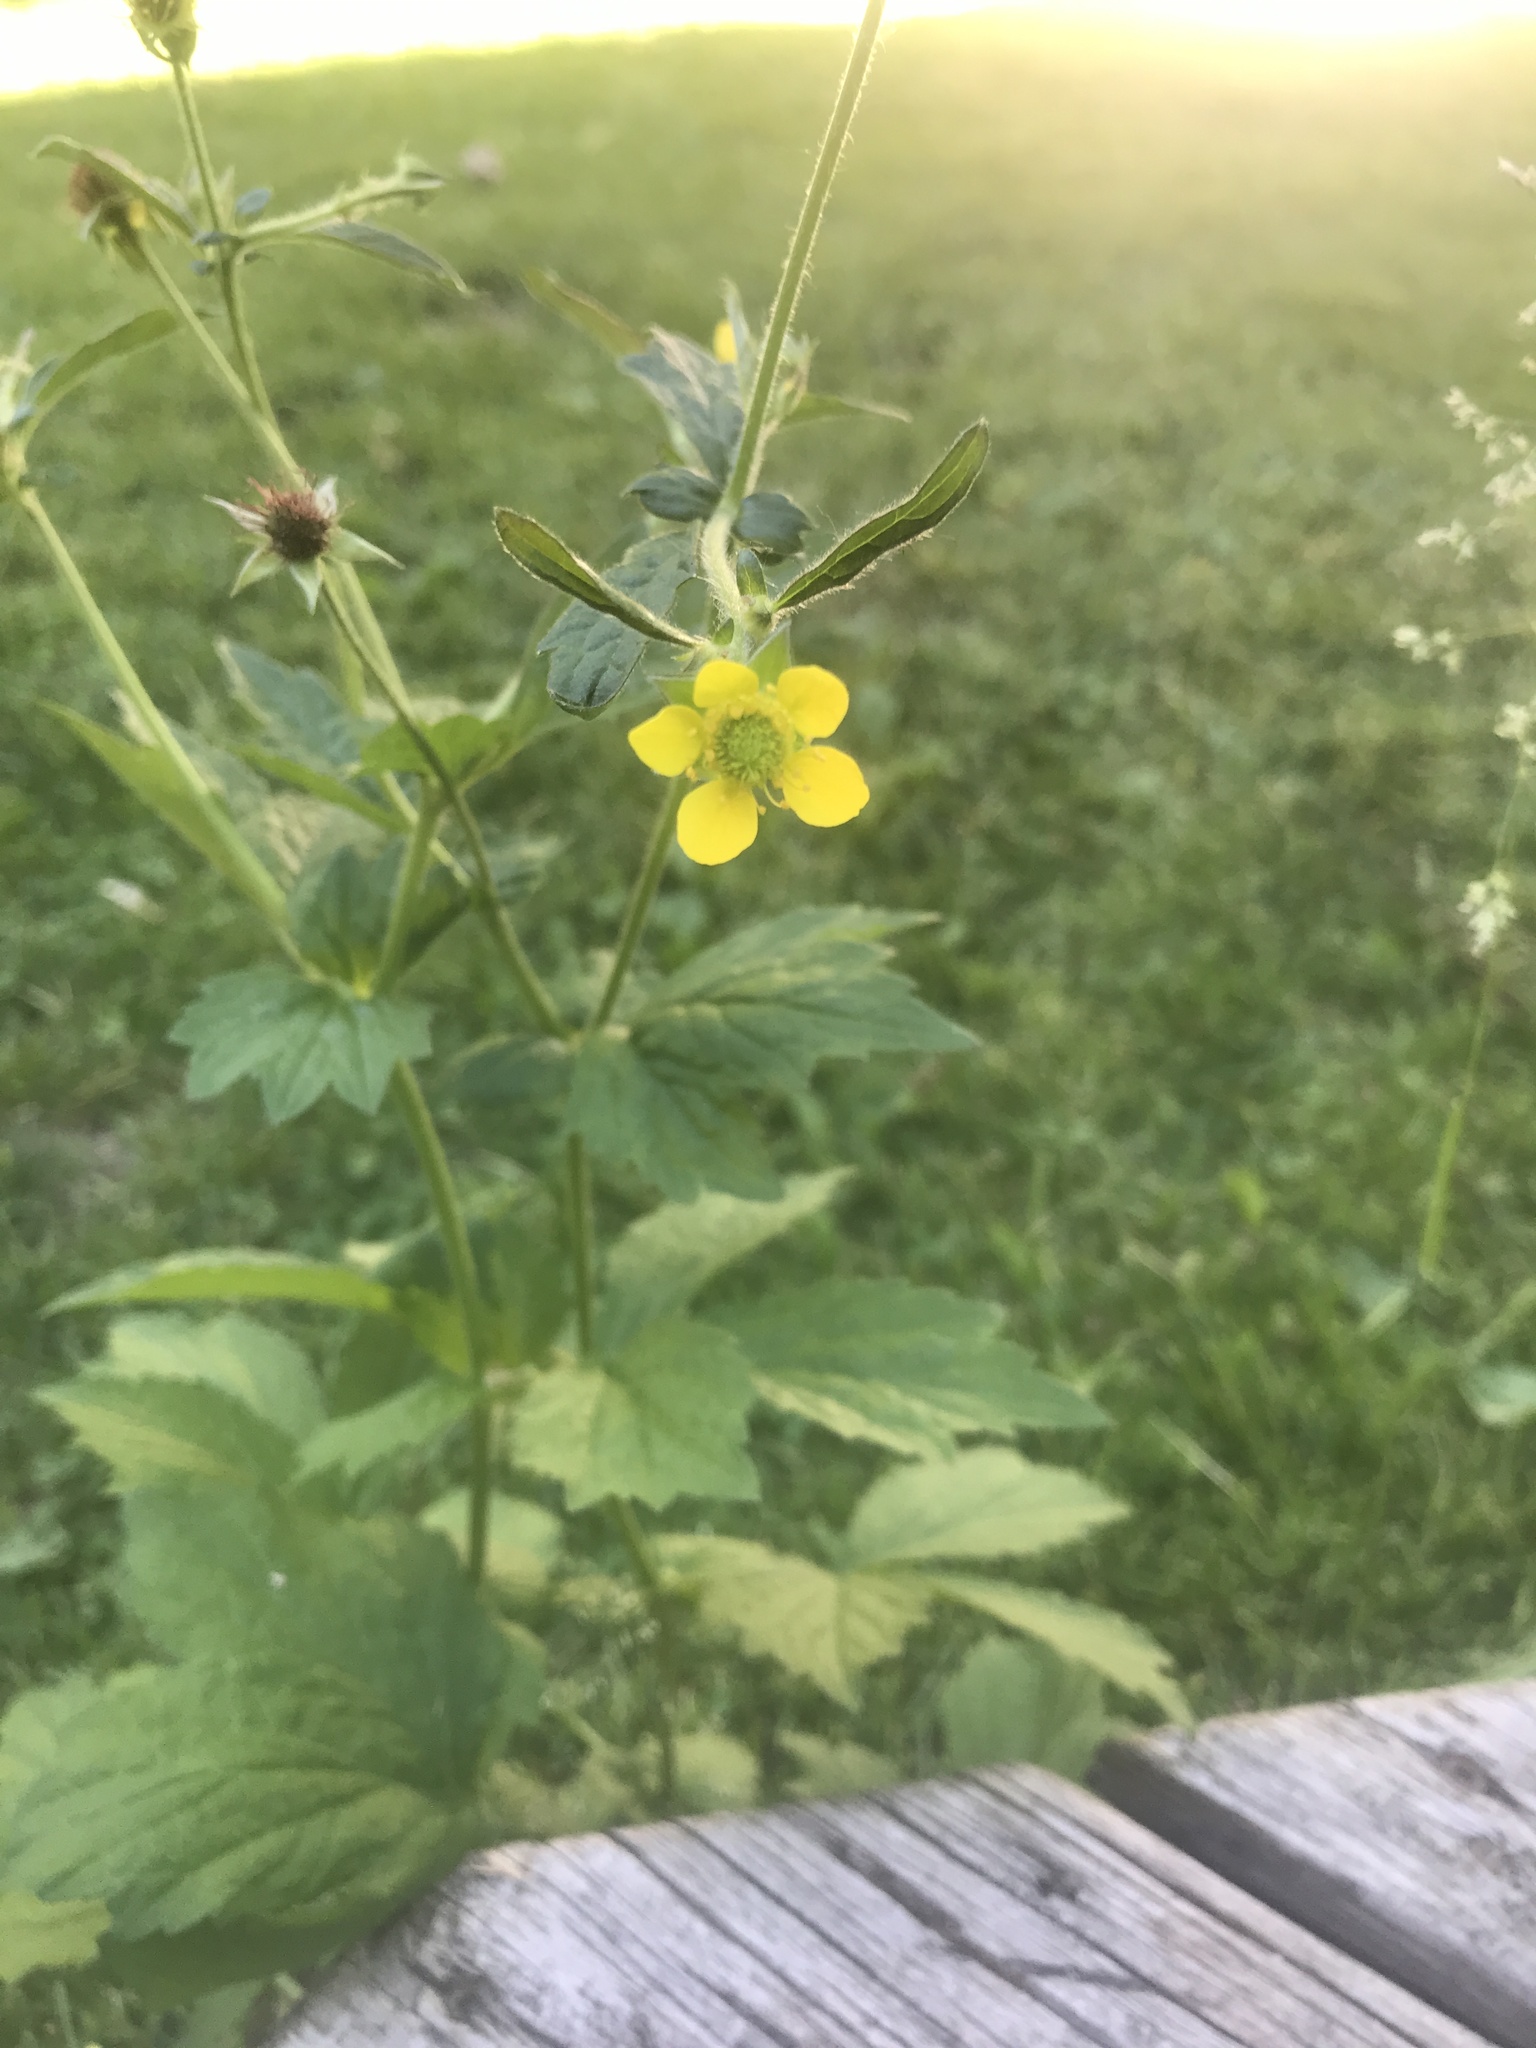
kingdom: Plantae
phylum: Tracheophyta
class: Magnoliopsida
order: Rosales
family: Rosaceae
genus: Geum
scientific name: Geum urbanum
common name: Wood avens
